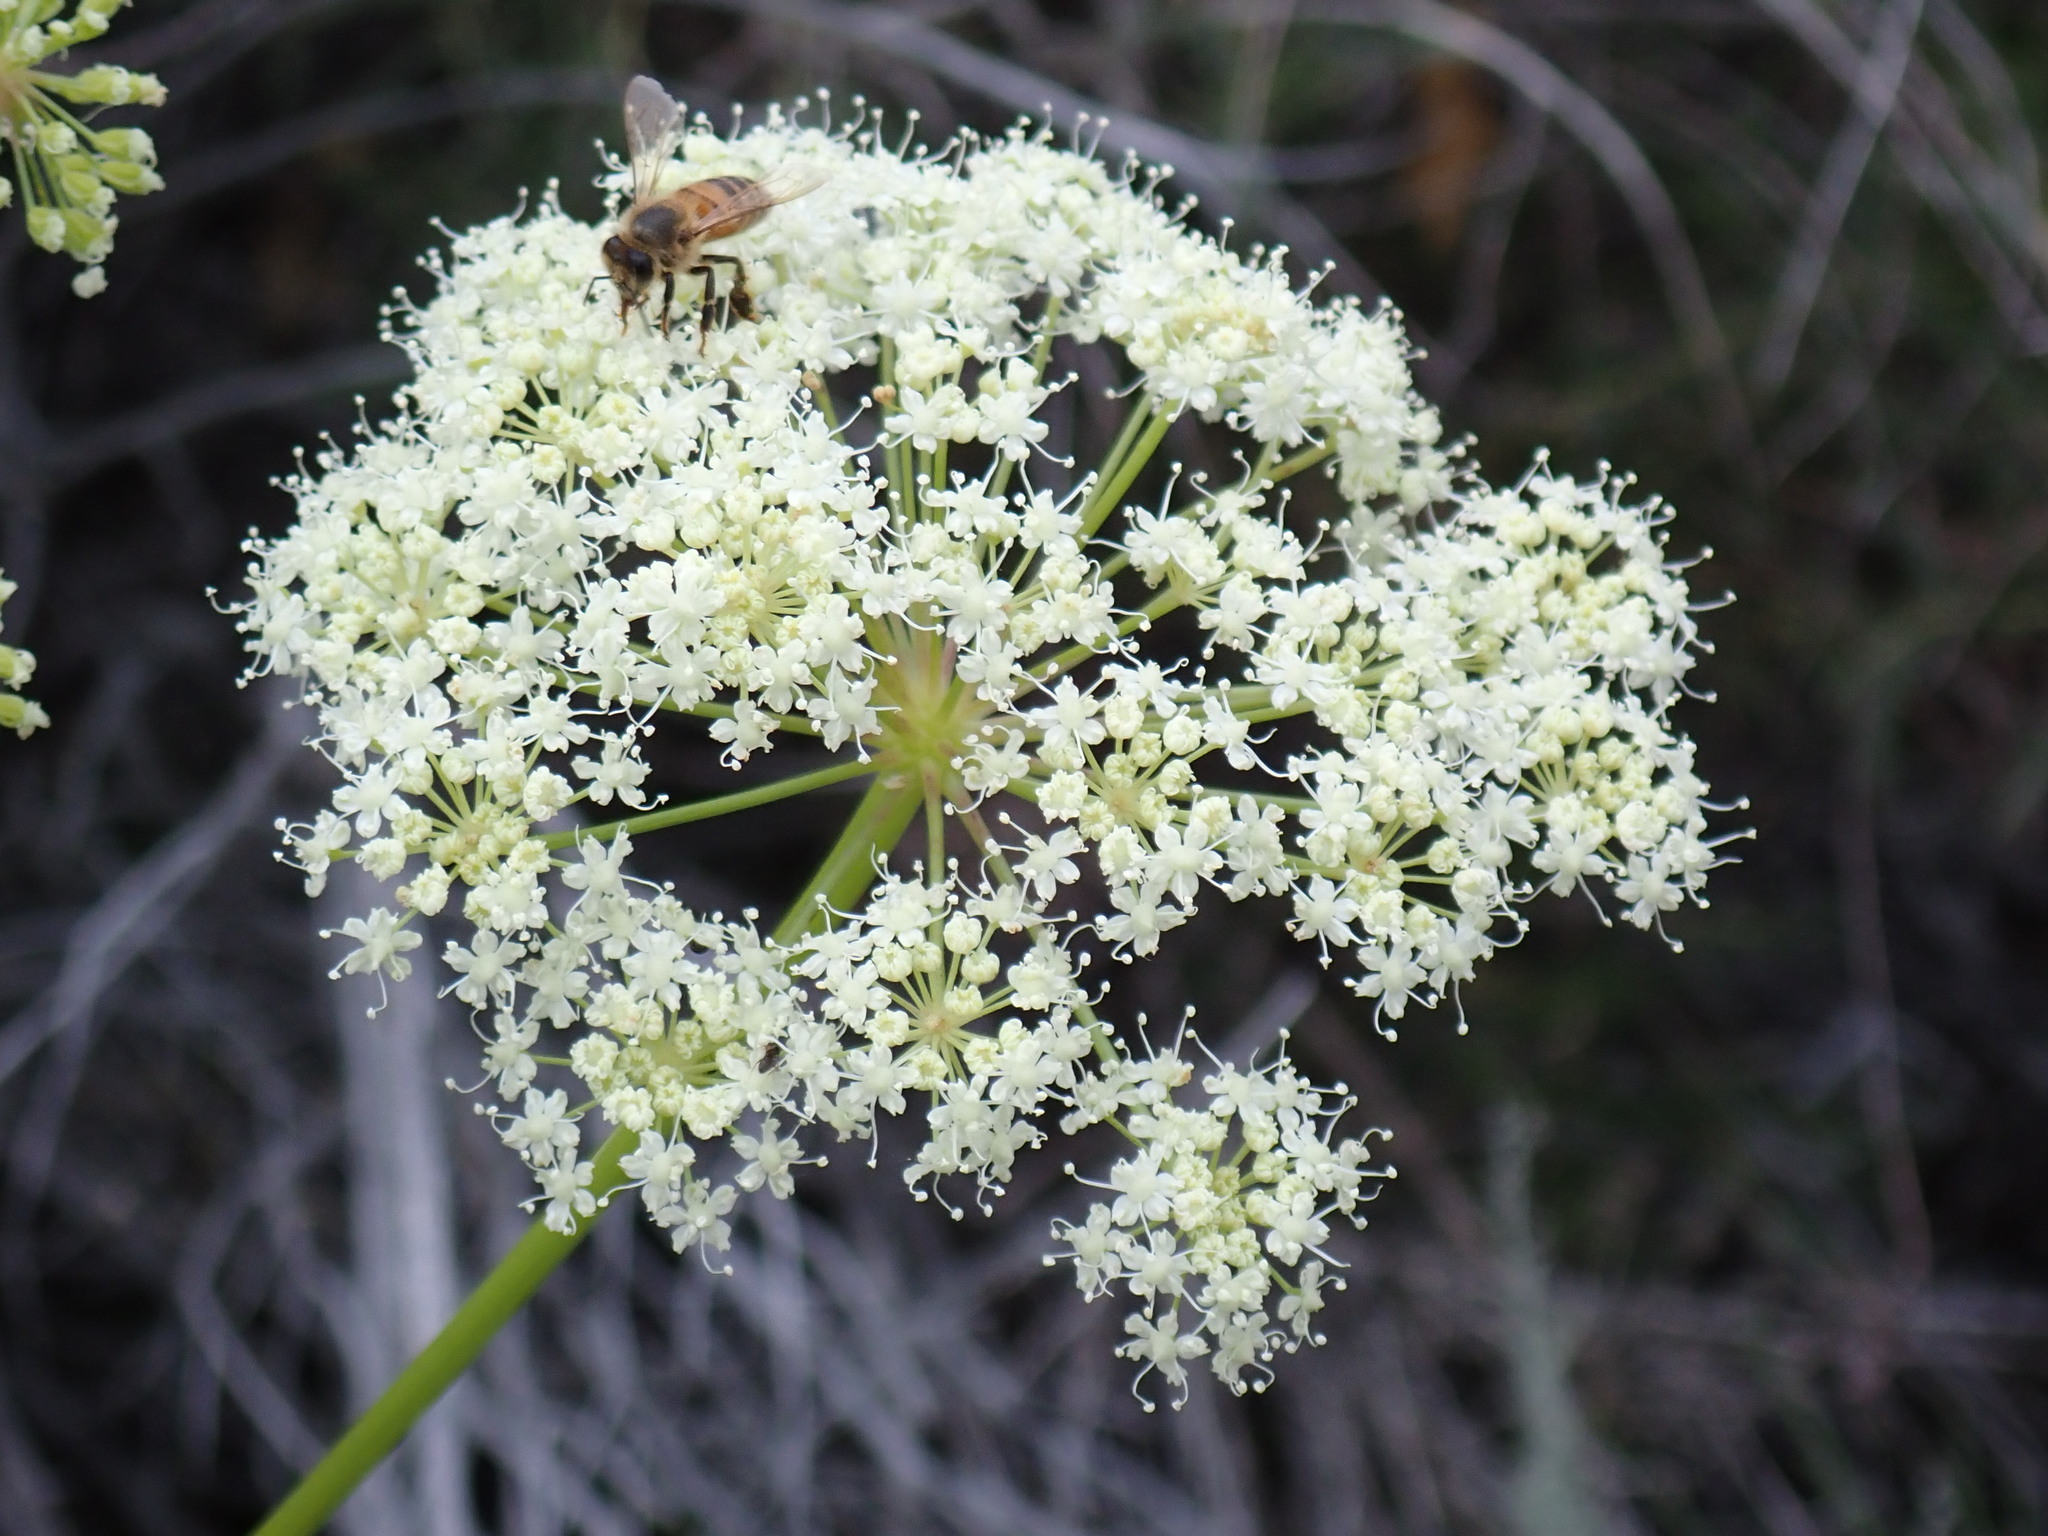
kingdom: Animalia
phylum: Arthropoda
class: Insecta
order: Hymenoptera
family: Apidae
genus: Apis
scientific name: Apis mellifera
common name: Honey bee
